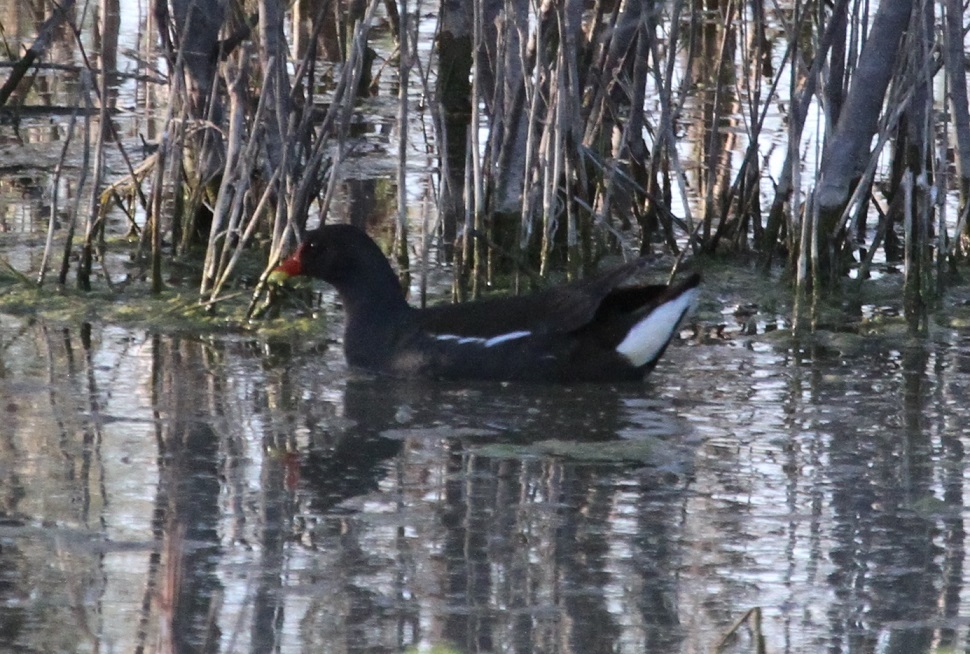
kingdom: Animalia
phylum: Chordata
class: Aves
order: Gruiformes
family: Rallidae
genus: Gallinula
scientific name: Gallinula chloropus
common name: Common moorhen
